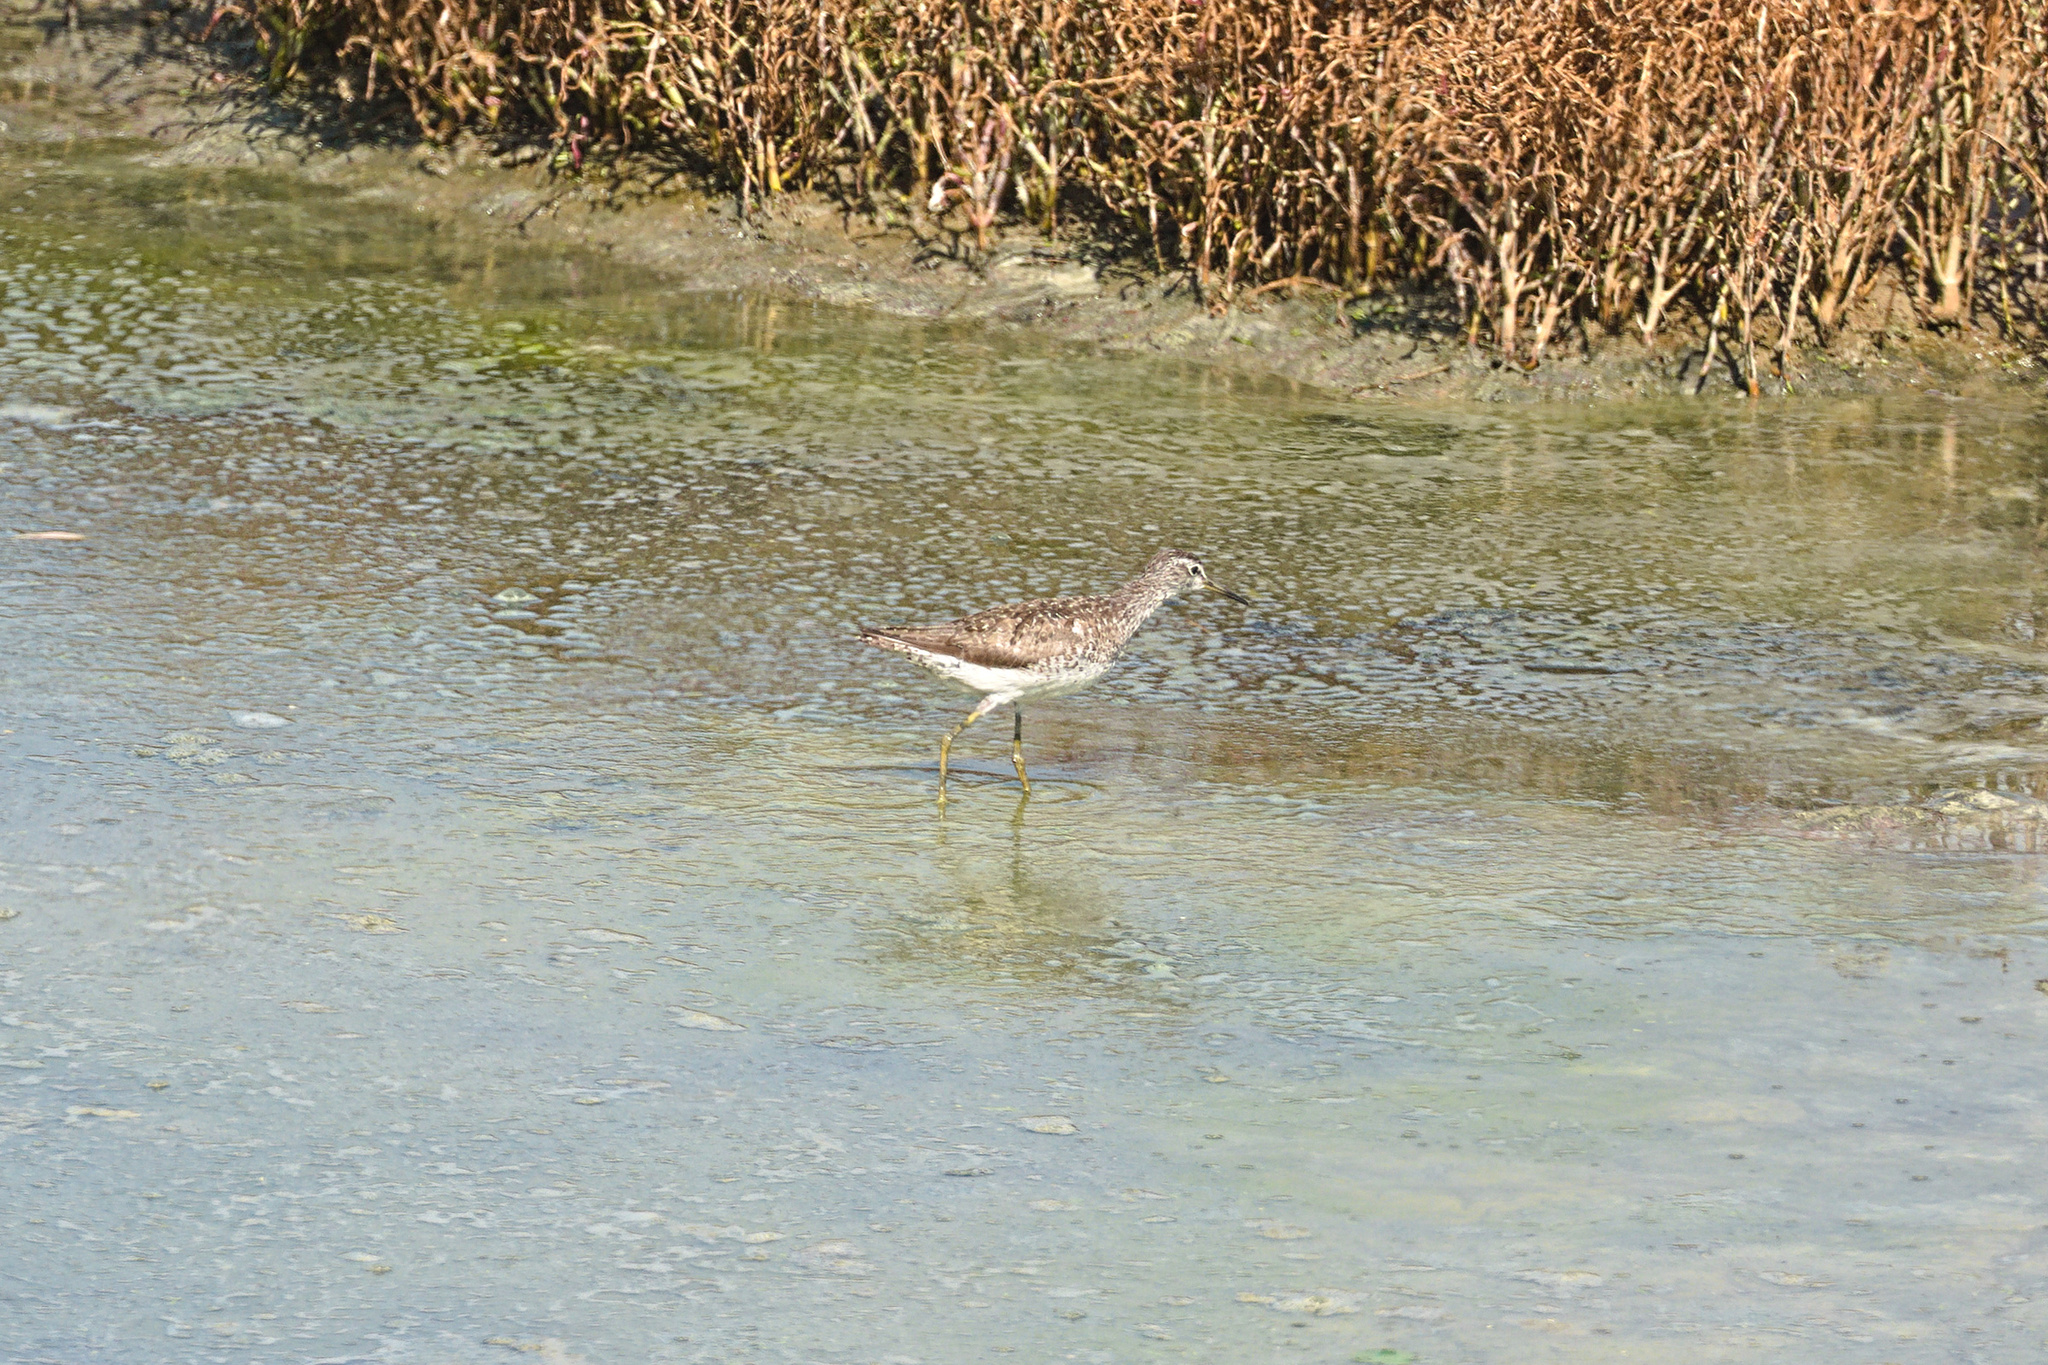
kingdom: Animalia
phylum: Chordata
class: Aves
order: Charadriiformes
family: Scolopacidae
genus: Tringa
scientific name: Tringa glareola
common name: Wood sandpiper
